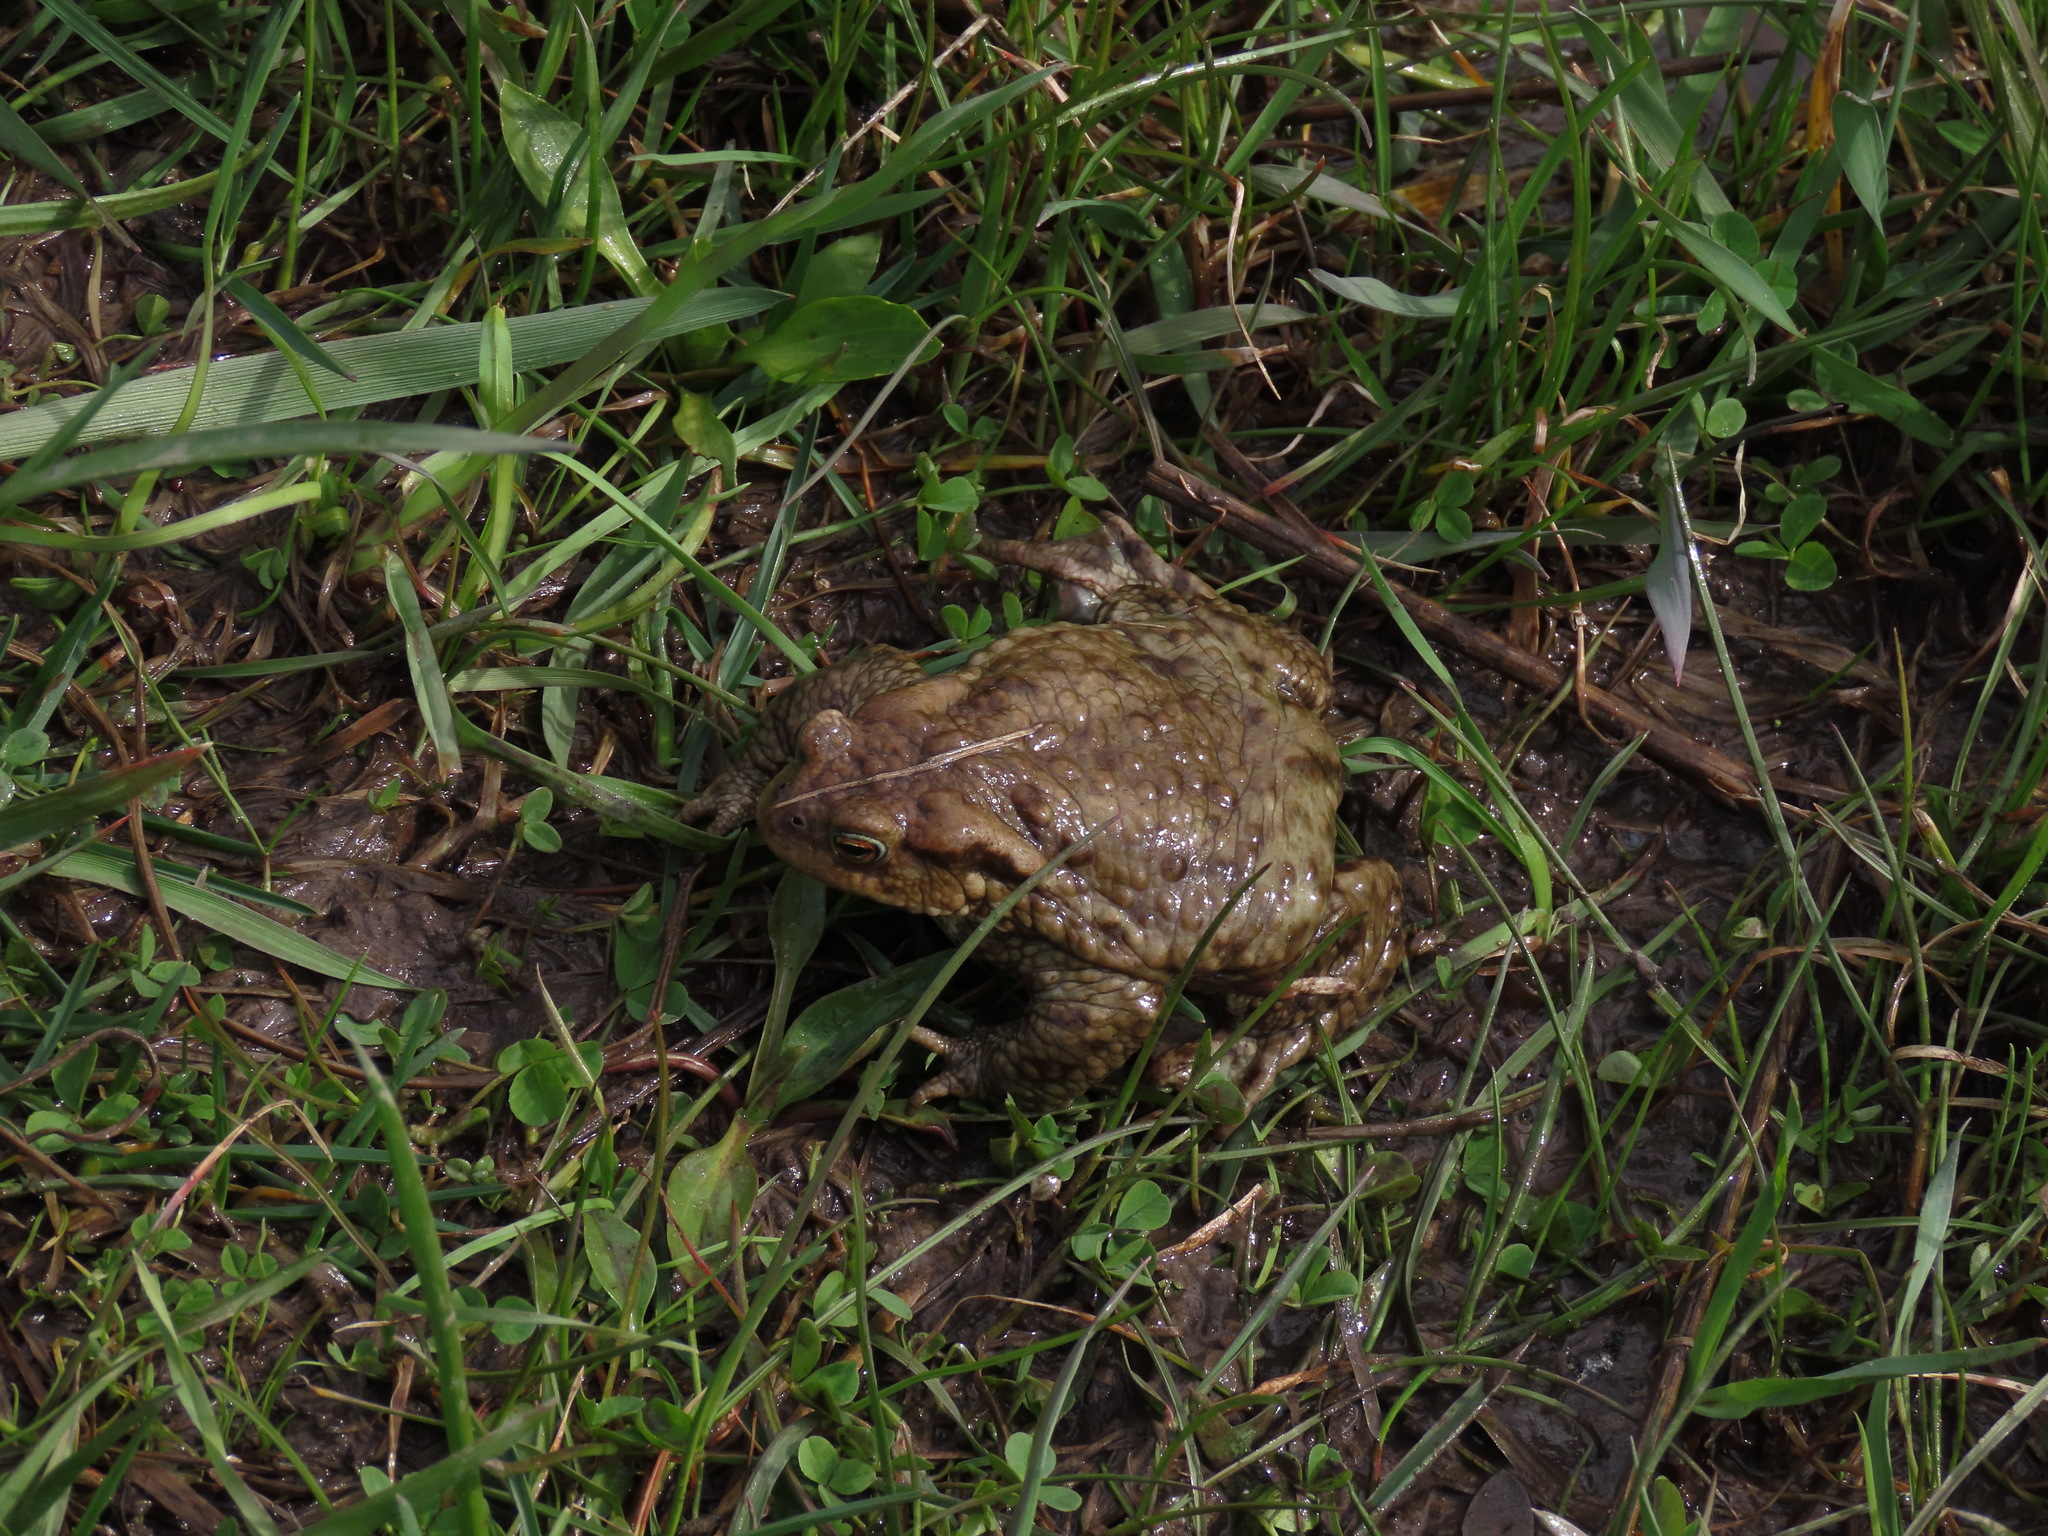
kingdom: Animalia
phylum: Chordata
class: Amphibia
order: Anura
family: Bufonidae
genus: Bufo
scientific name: Bufo bufo
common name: Common toad
